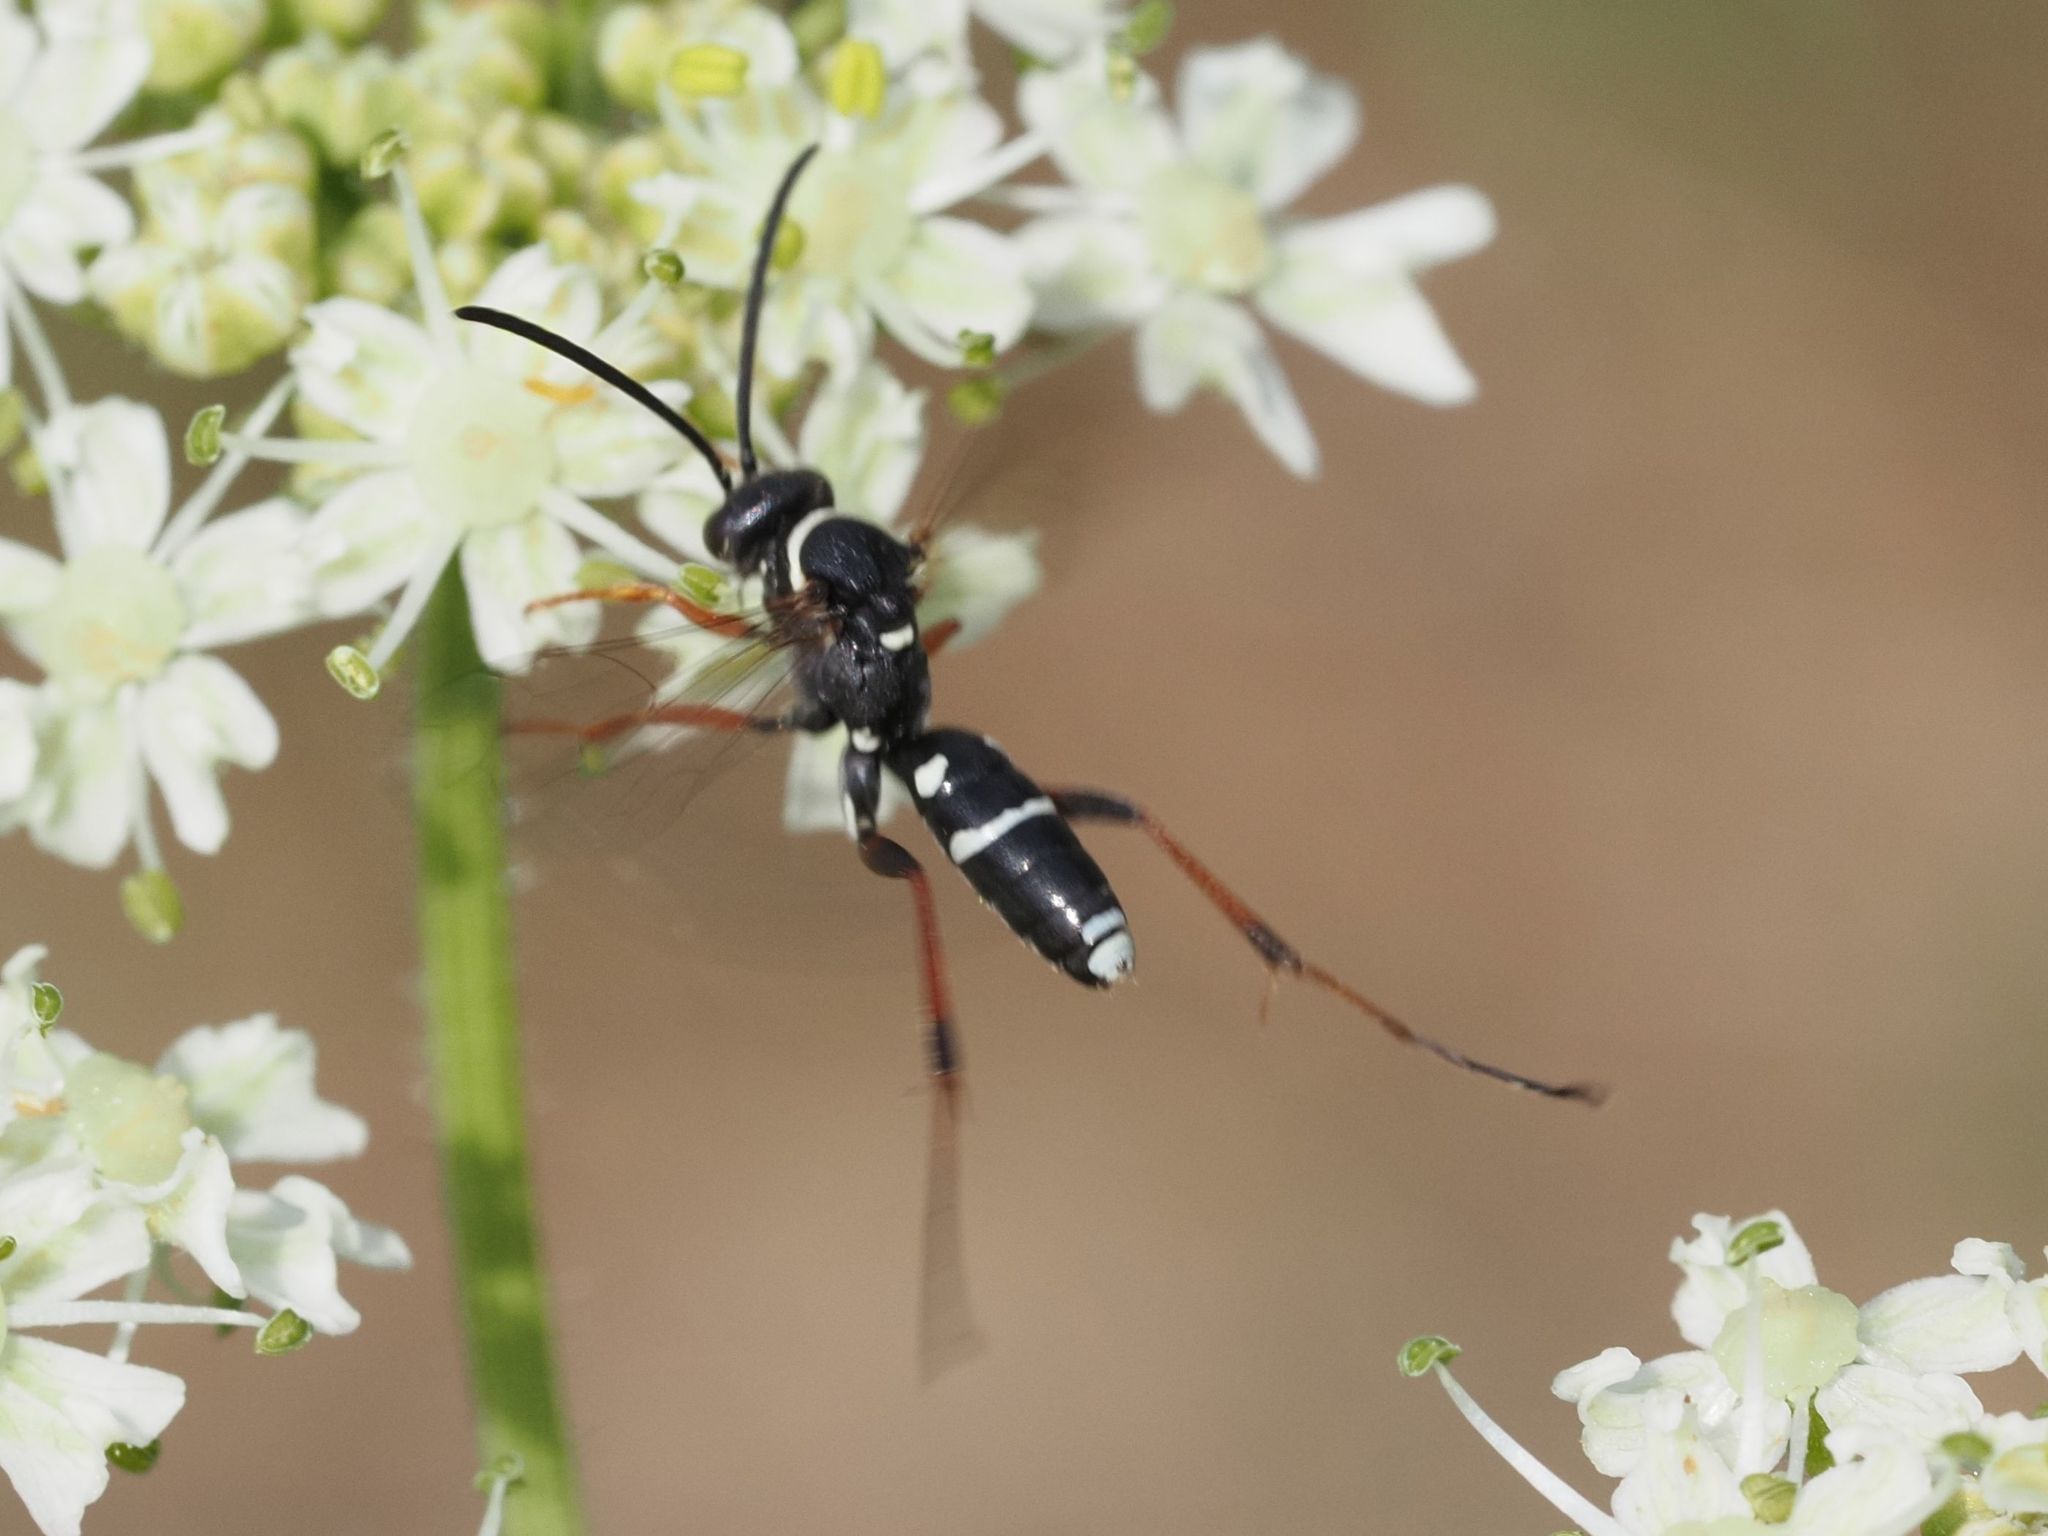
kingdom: Animalia
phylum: Arthropoda
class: Insecta
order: Hymenoptera
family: Pompilidae
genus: Ceropales
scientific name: Ceropales maculata
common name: Spider wasp
